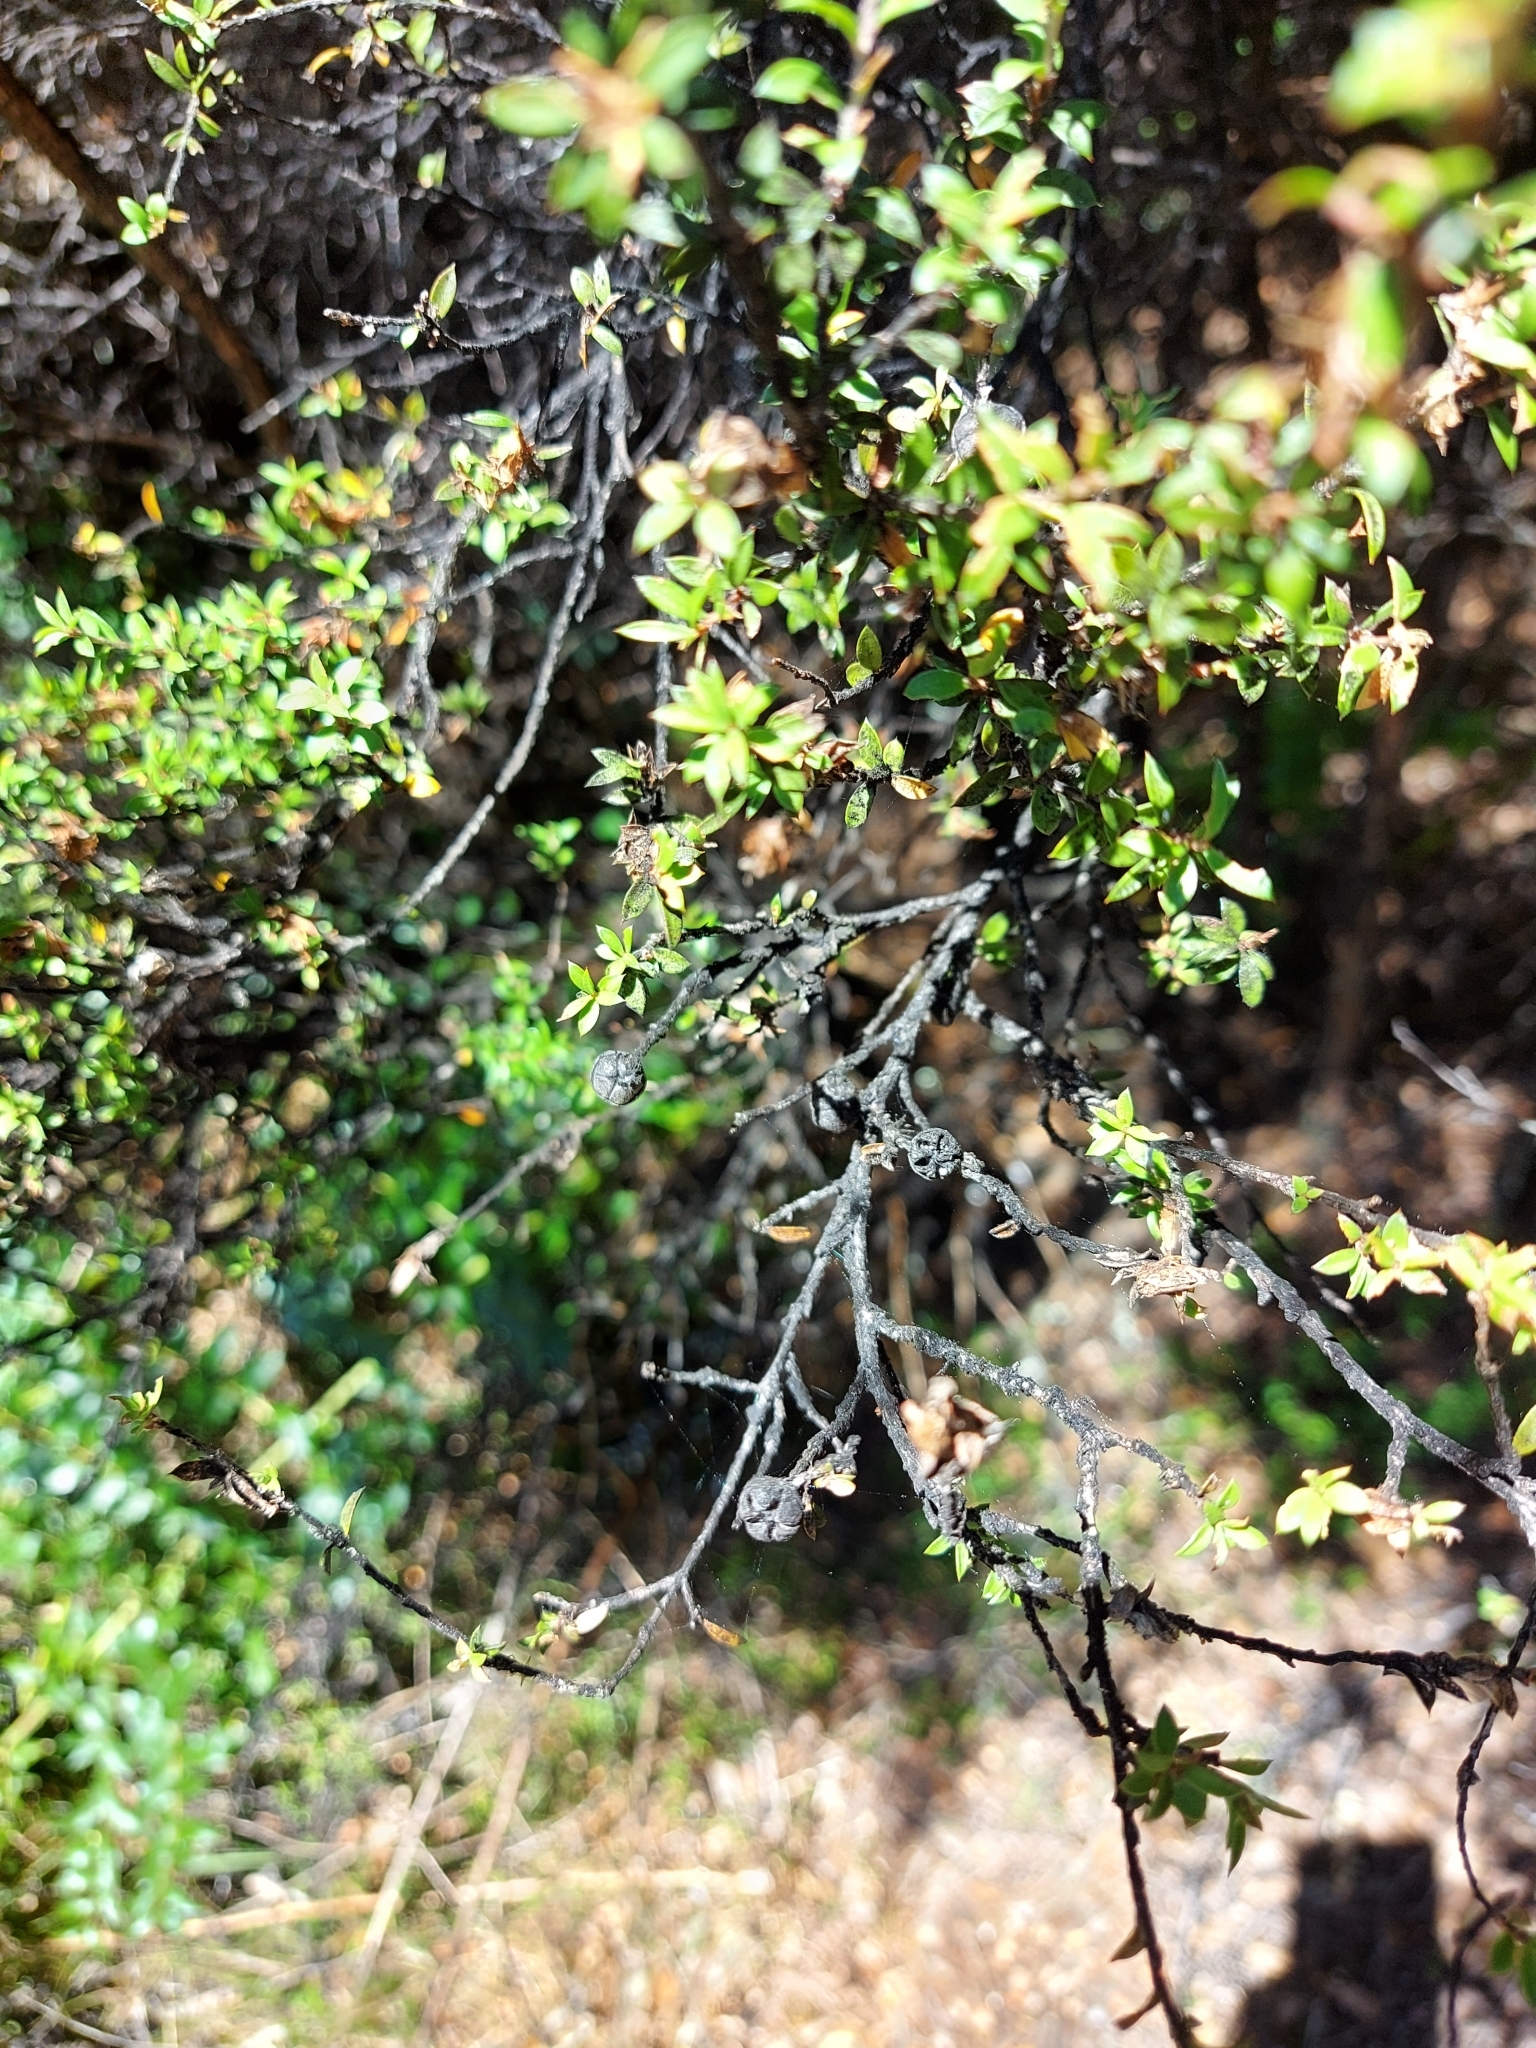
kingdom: Plantae
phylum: Tracheophyta
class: Magnoliopsida
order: Myrtales
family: Myrtaceae
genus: Leptospermum
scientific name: Leptospermum scoparium
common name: Broom tea-tree
